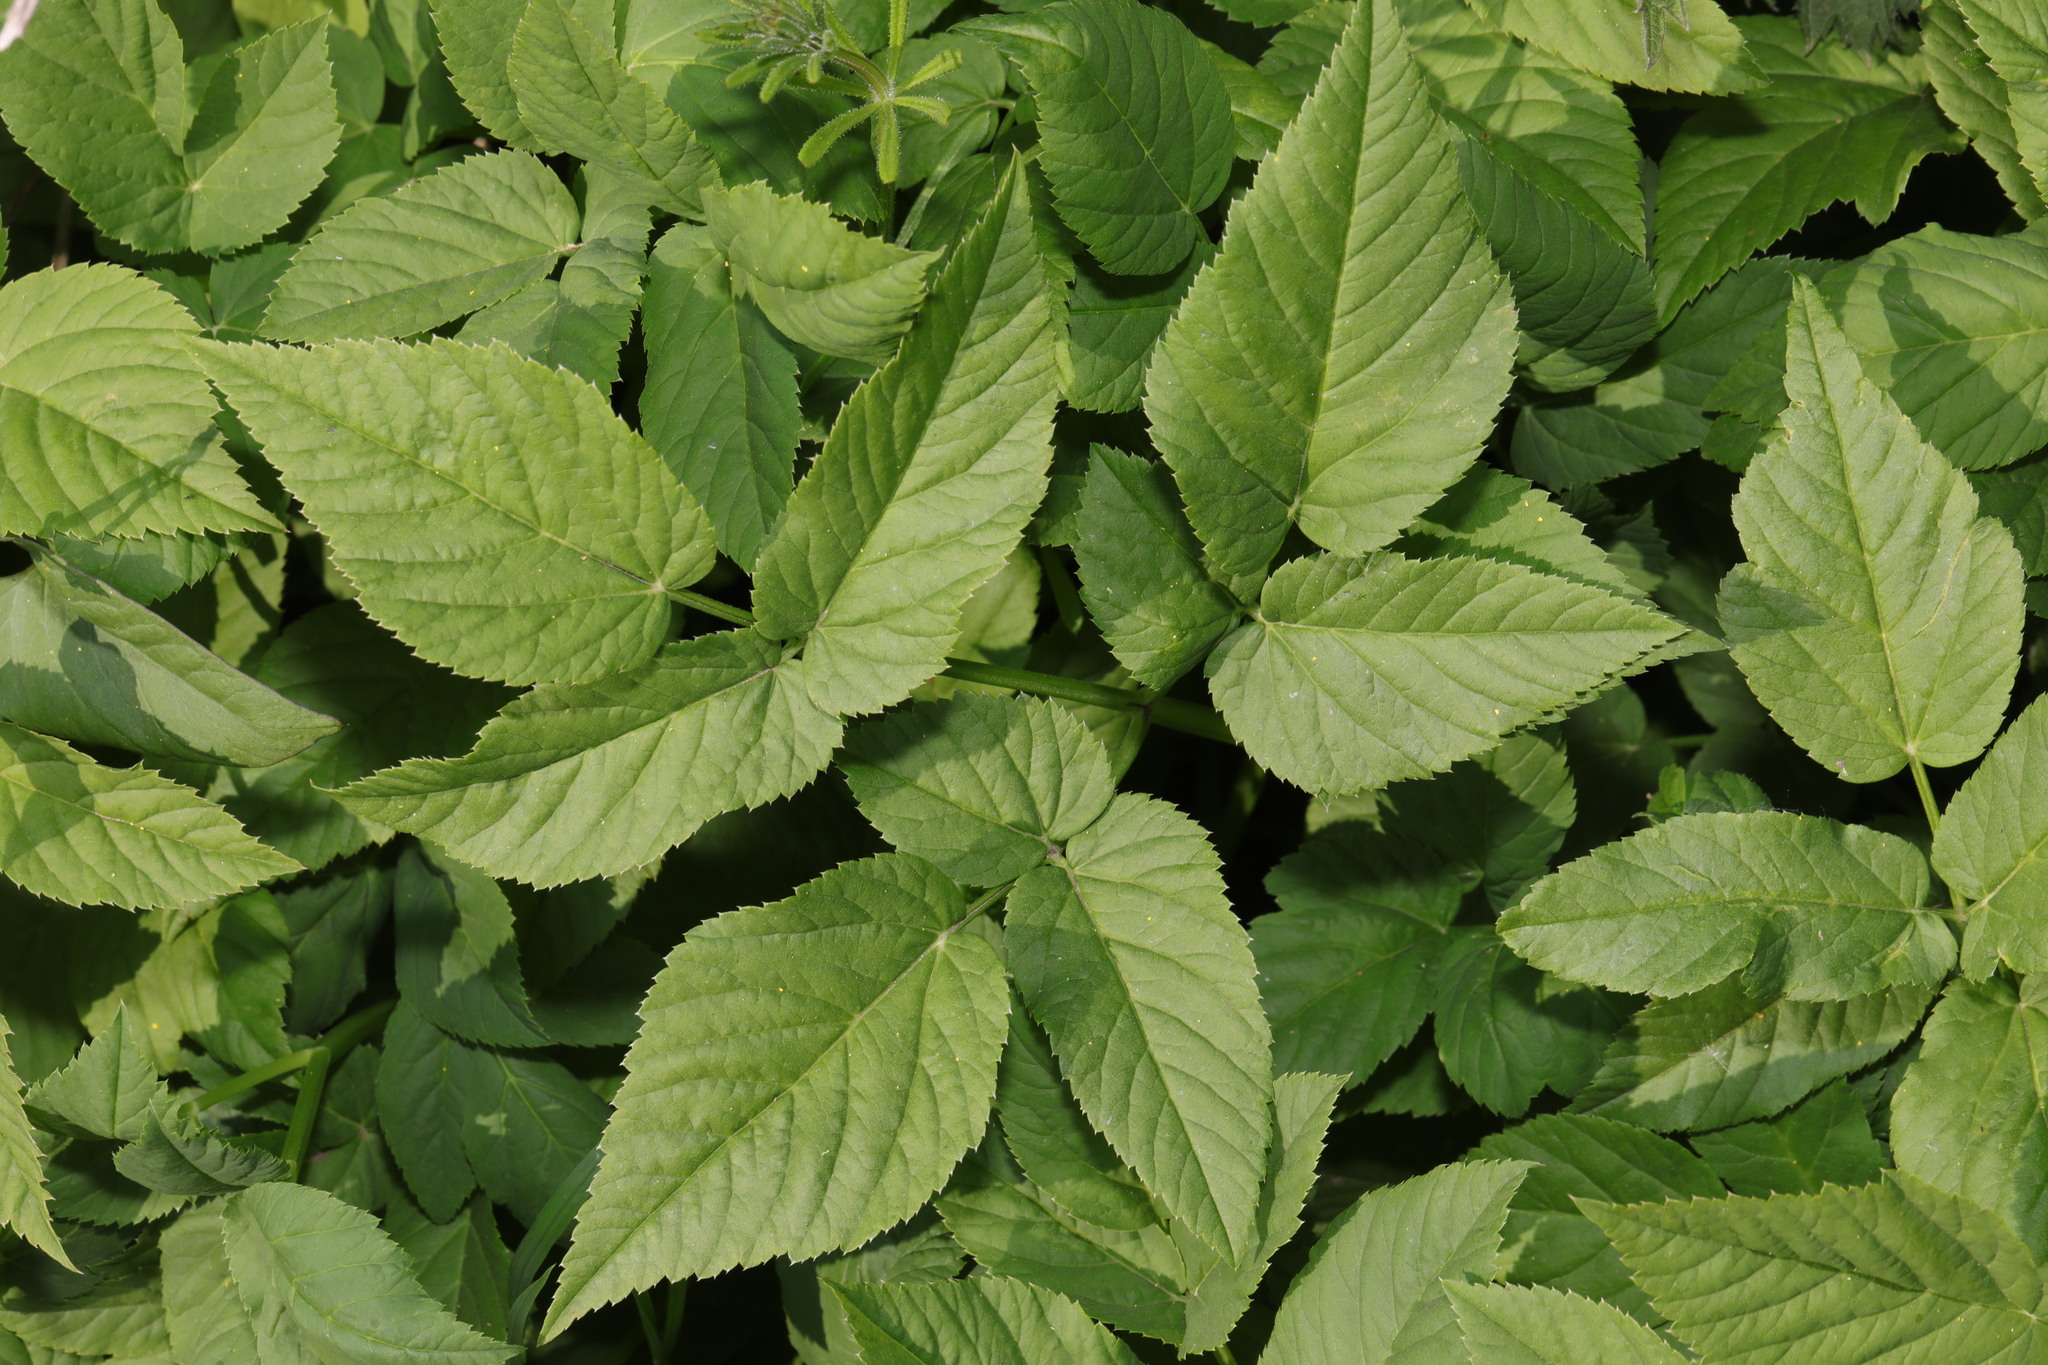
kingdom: Plantae
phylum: Tracheophyta
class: Magnoliopsida
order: Apiales
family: Apiaceae
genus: Aegopodium
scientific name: Aegopodium podagraria
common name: Ground-elder
